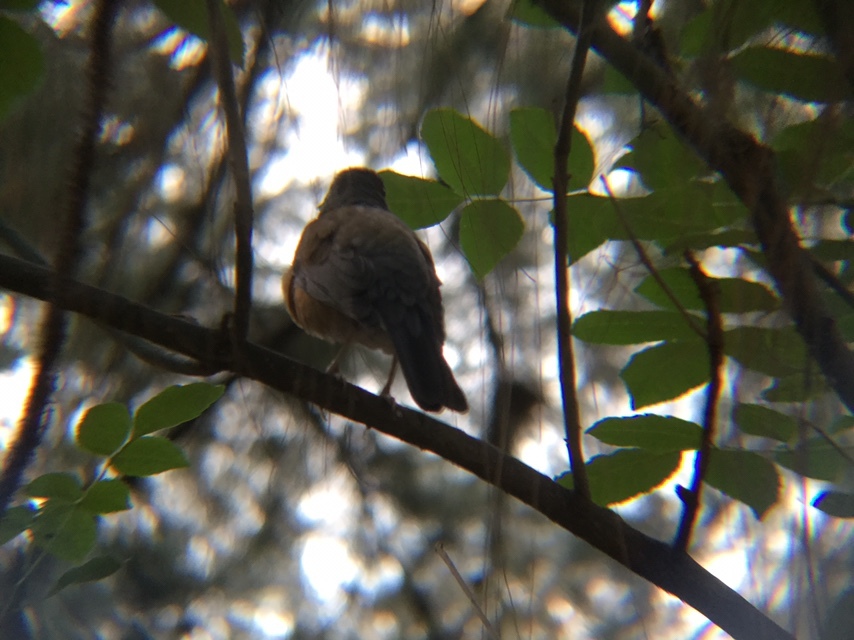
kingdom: Animalia
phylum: Chordata
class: Aves
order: Passeriformes
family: Turdidae
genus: Turdus
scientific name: Turdus rufopalliatus
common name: Rufous-backed robin
